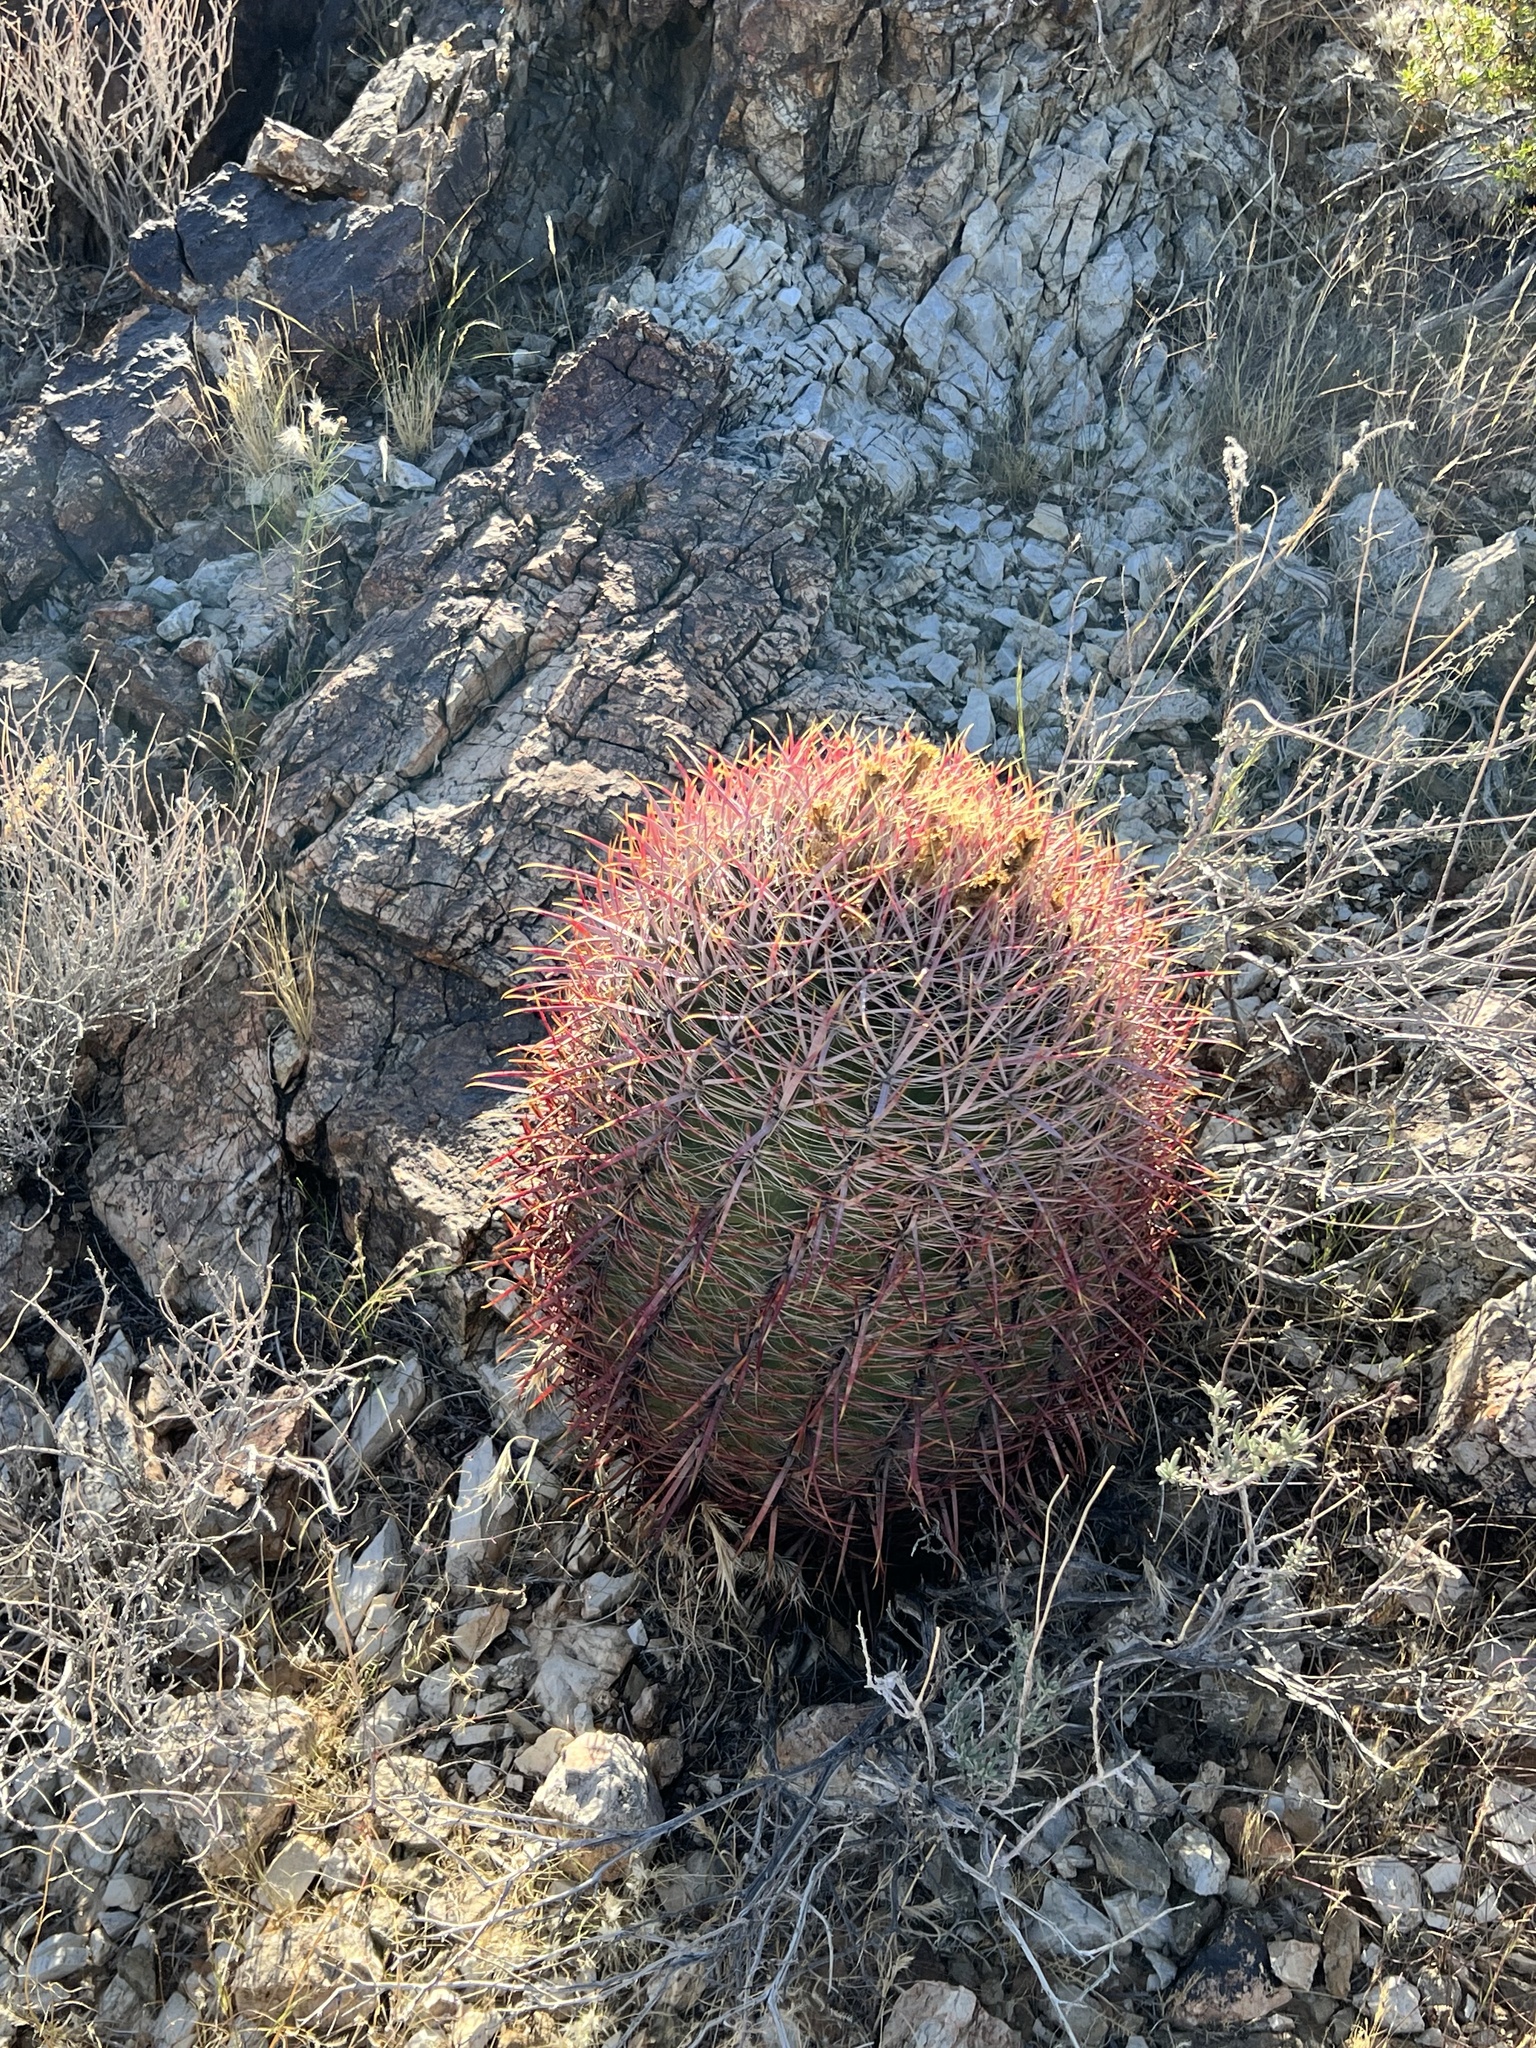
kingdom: Plantae
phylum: Tracheophyta
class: Magnoliopsida
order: Caryophyllales
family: Cactaceae
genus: Ferocactus
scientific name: Ferocactus cylindraceus
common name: California barrel cactus
